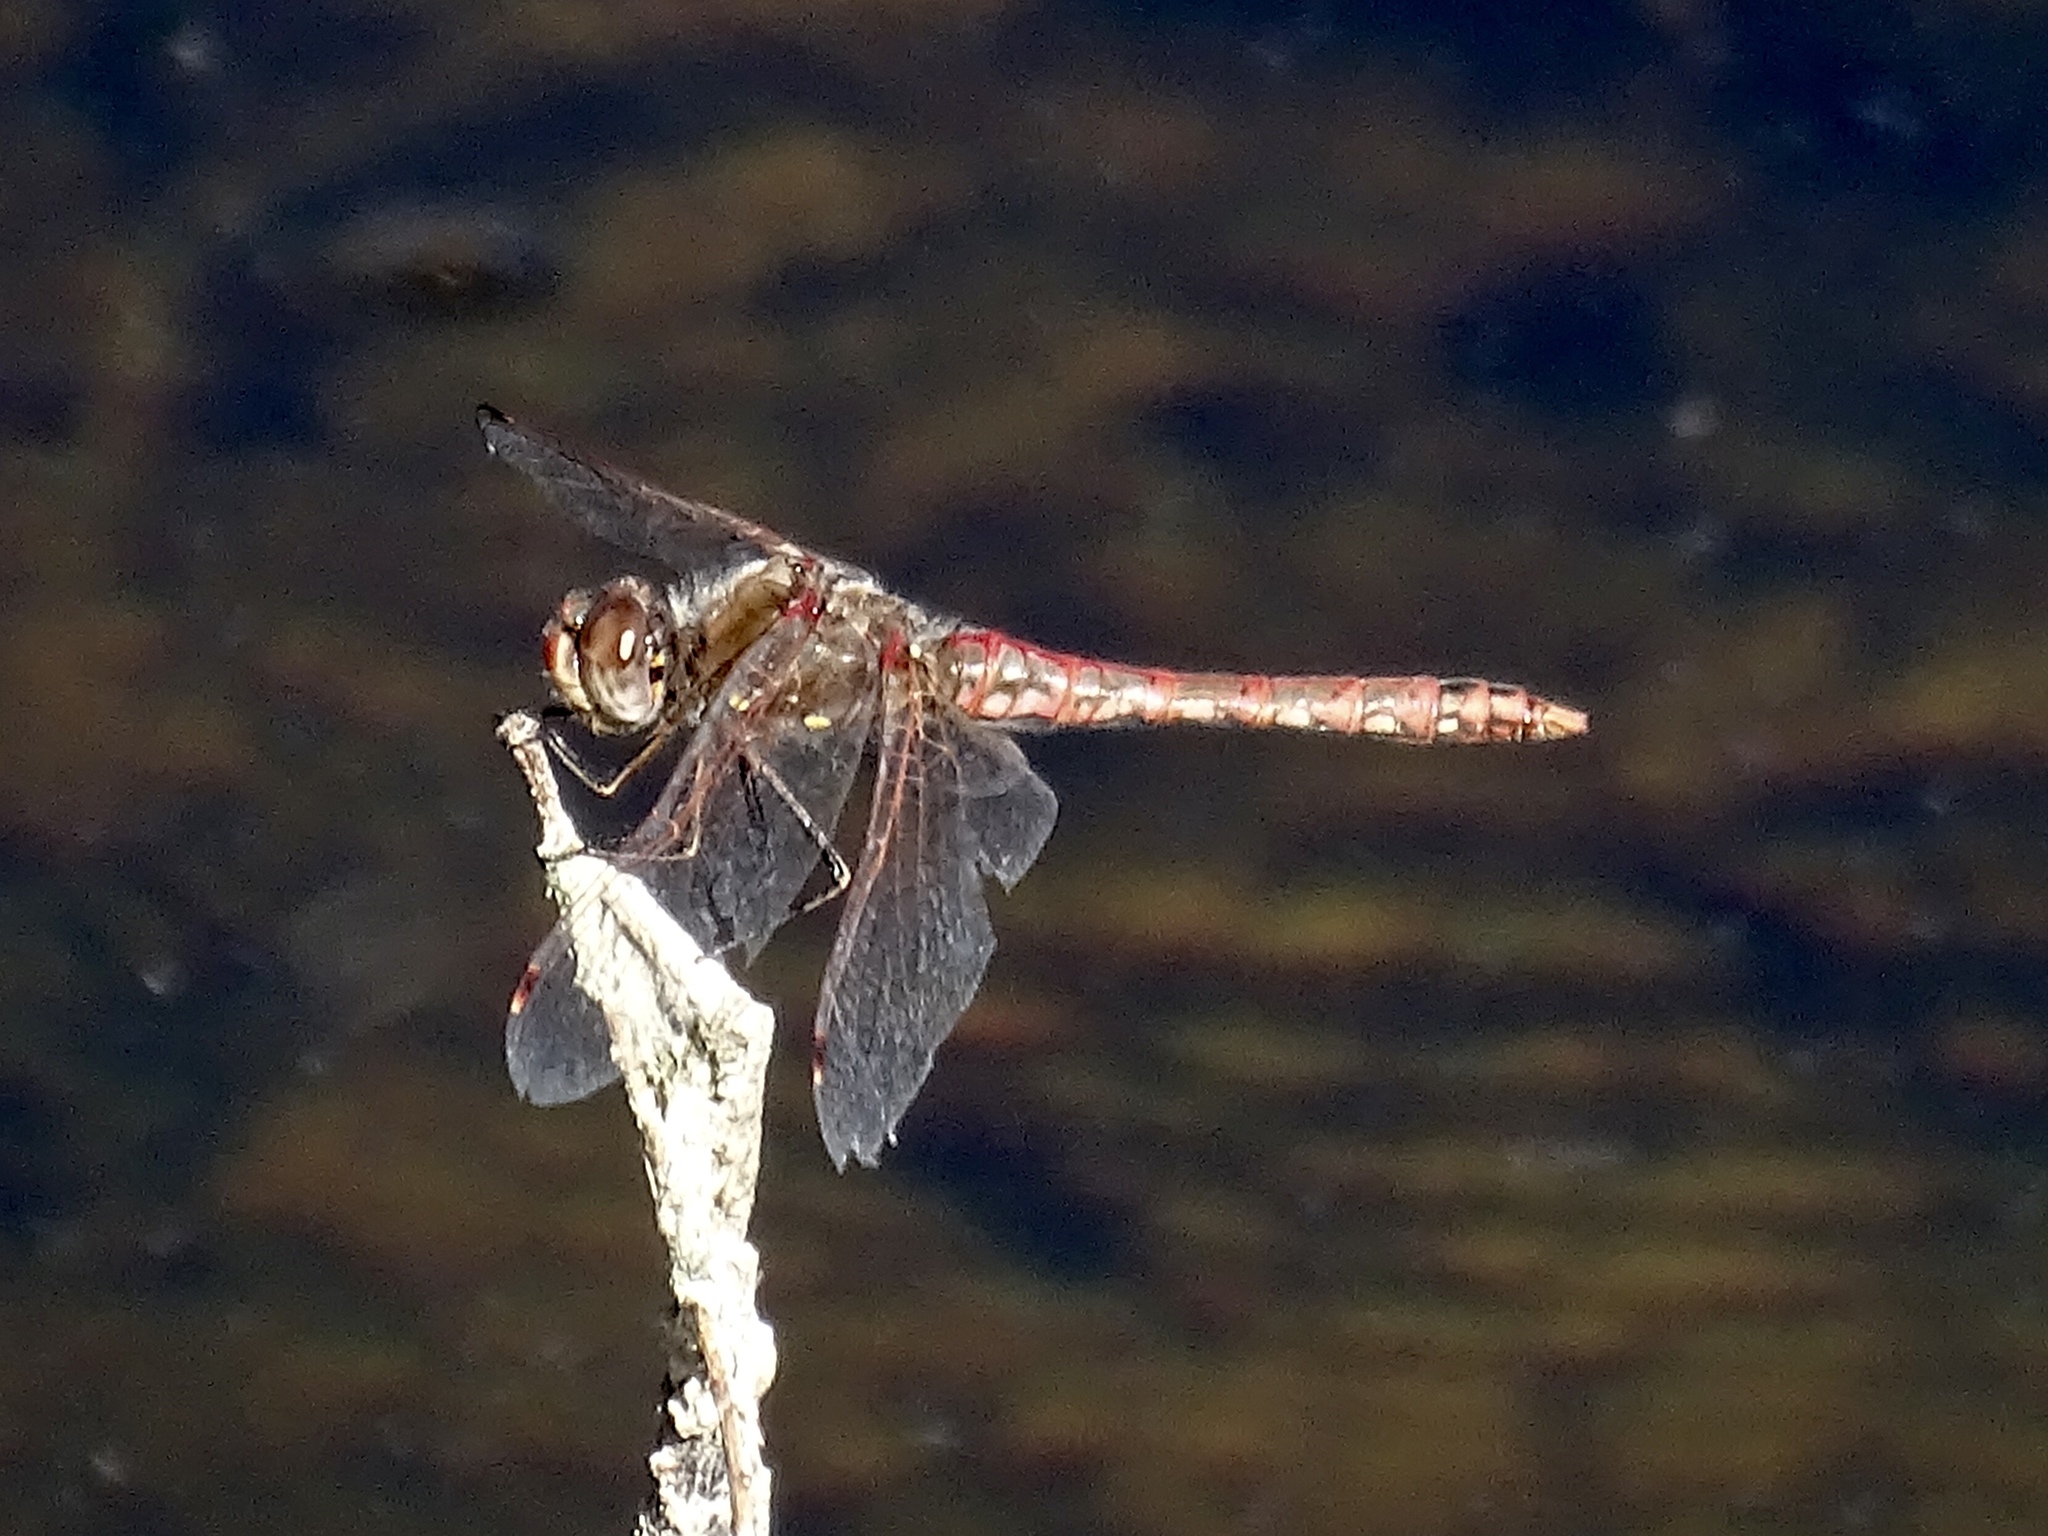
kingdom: Animalia
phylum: Arthropoda
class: Insecta
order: Odonata
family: Libellulidae
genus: Sympetrum
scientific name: Sympetrum corruptum
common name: Variegated meadowhawk
